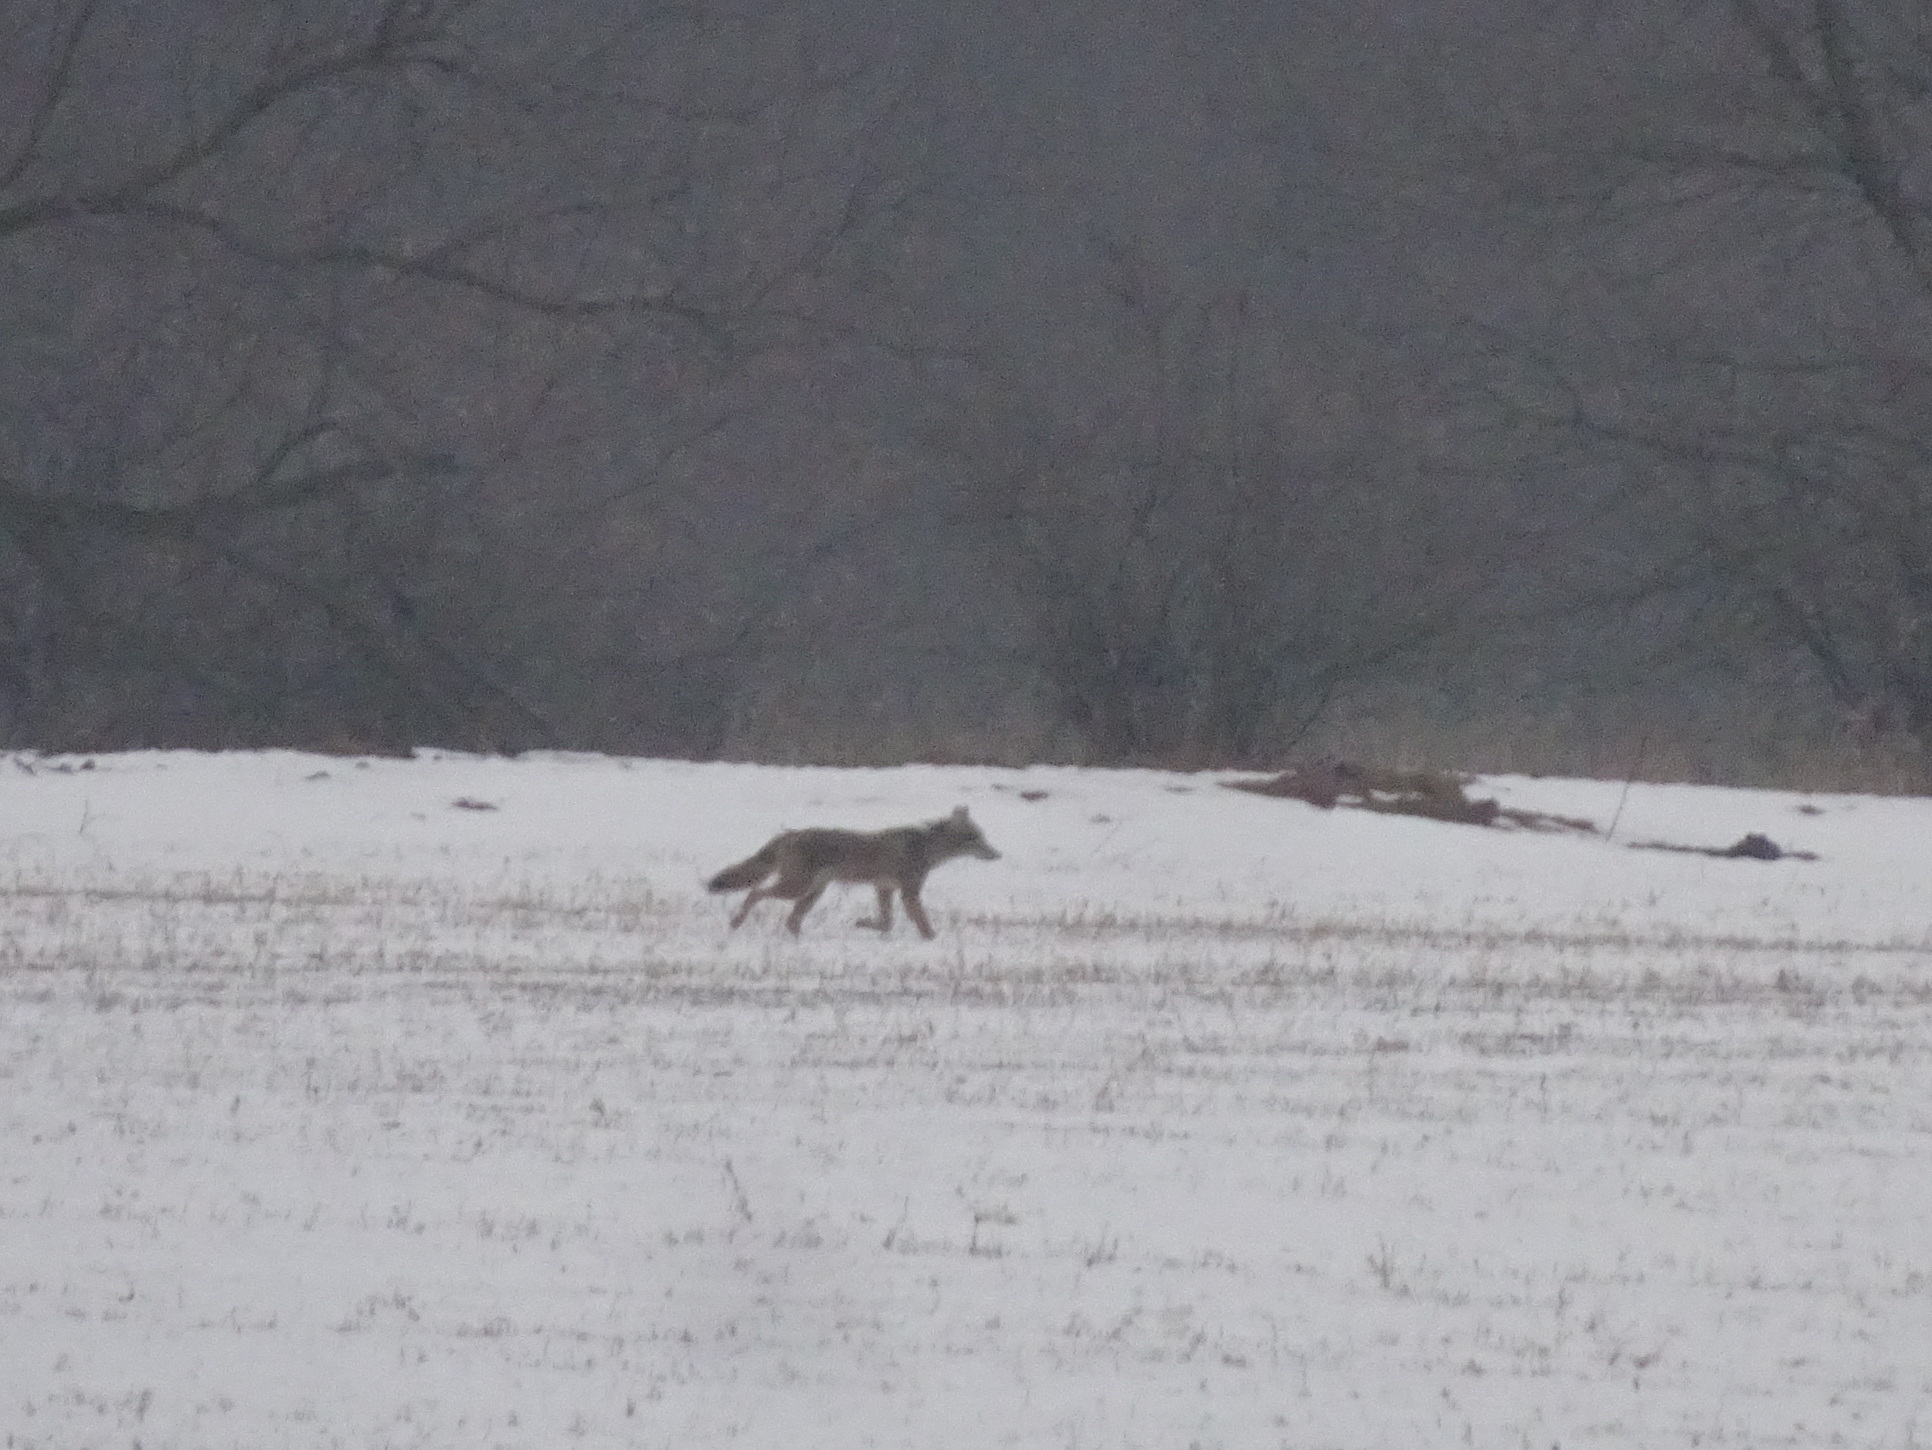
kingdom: Animalia
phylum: Chordata
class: Mammalia
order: Carnivora
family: Canidae
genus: Canis
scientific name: Canis latrans
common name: Coyote
